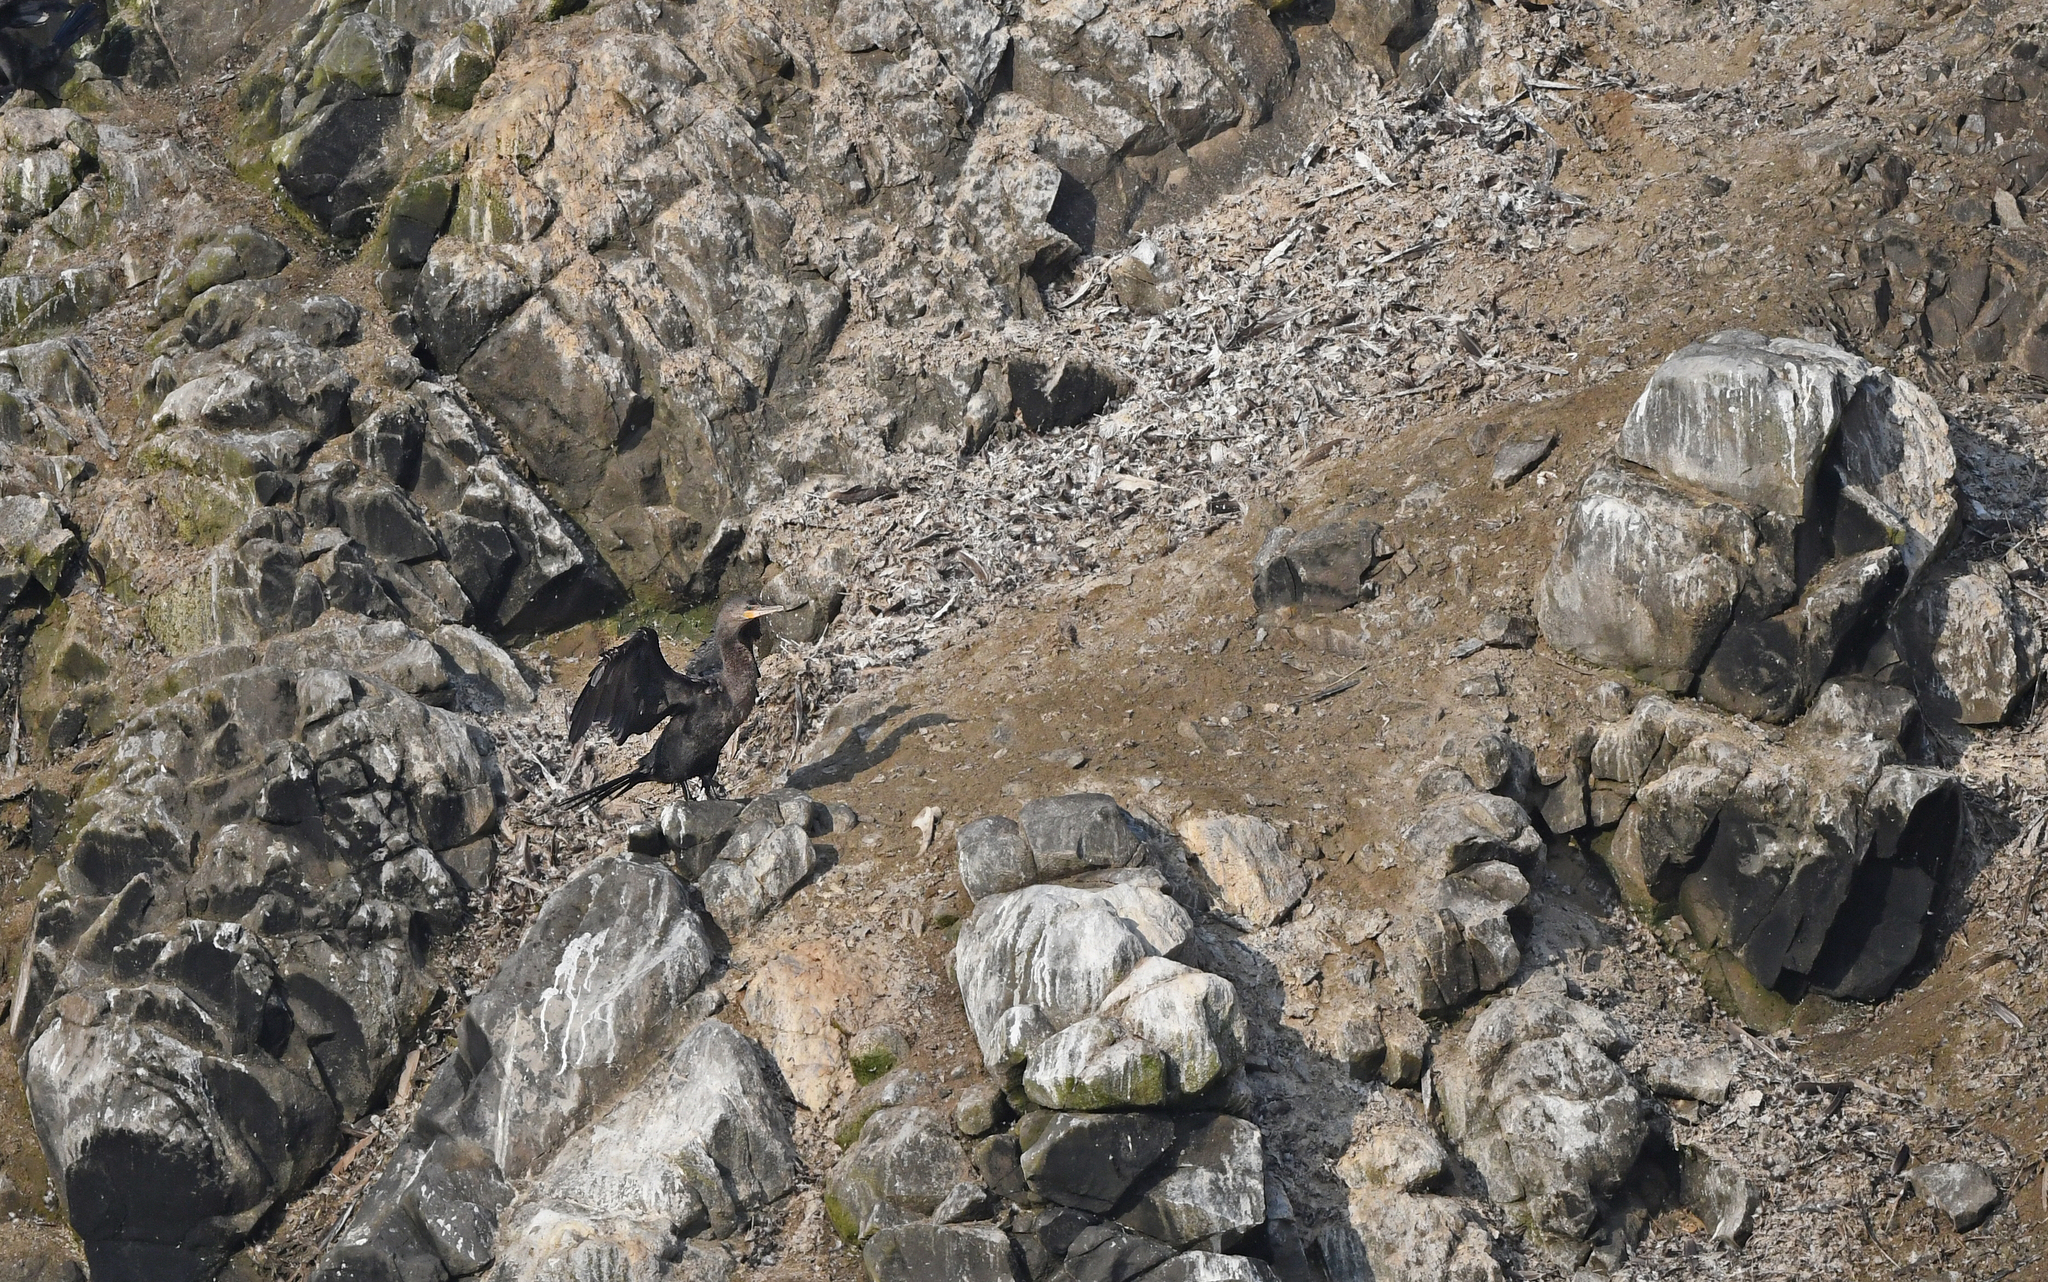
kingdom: Animalia
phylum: Chordata
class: Aves
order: Suliformes
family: Phalacrocoracidae
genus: Phalacrocorax
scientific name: Phalacrocorax brasilianus
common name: Neotropic cormorant
